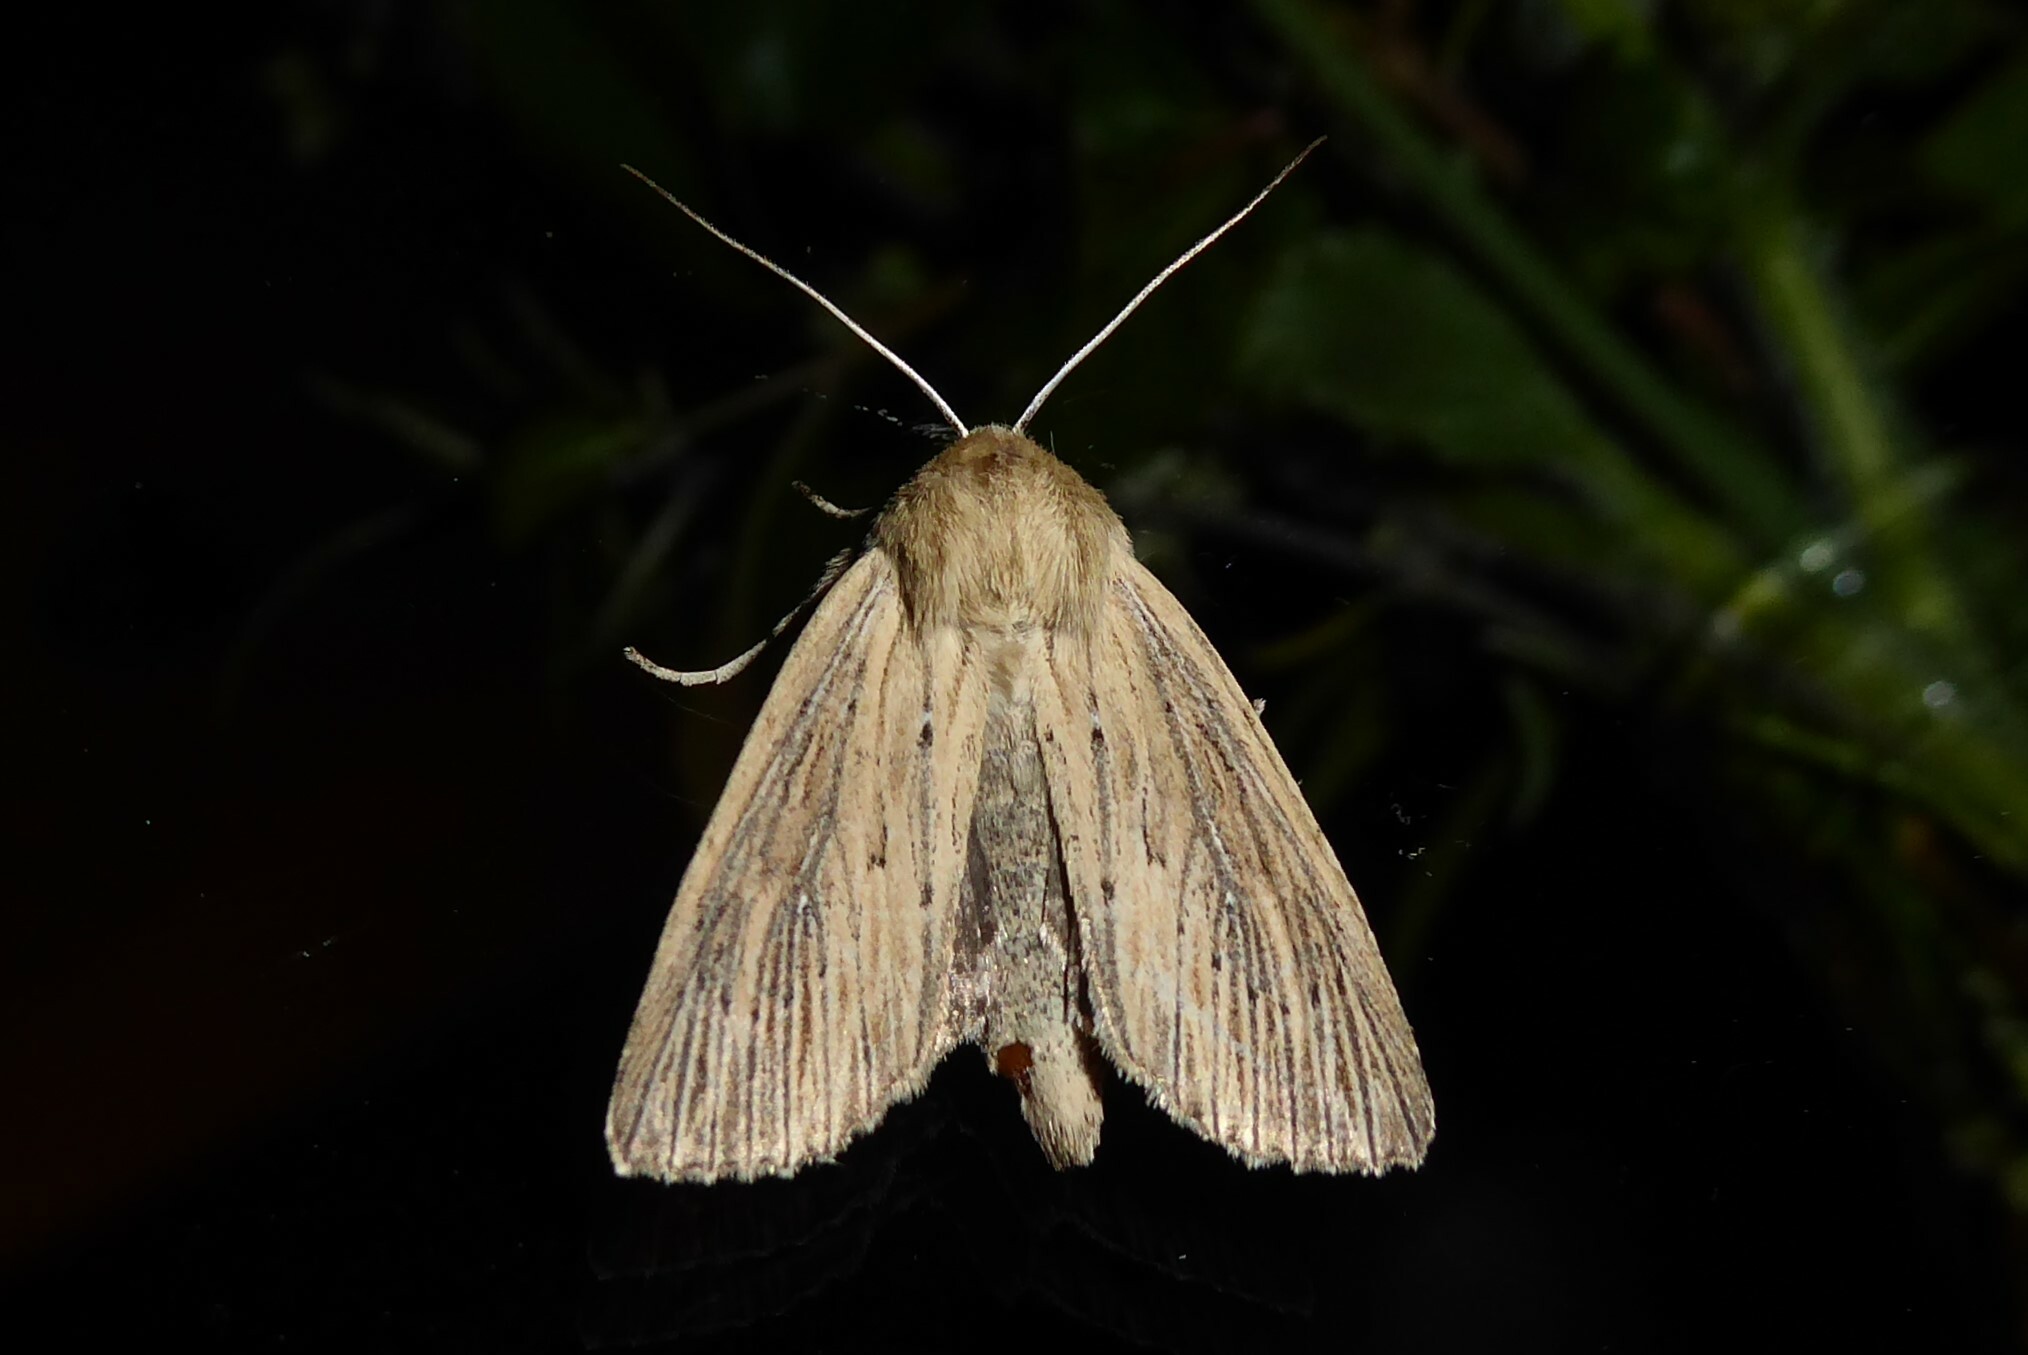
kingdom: Animalia
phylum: Arthropoda
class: Insecta
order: Lepidoptera
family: Noctuidae
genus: Ichneutica
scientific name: Ichneutica arotis
